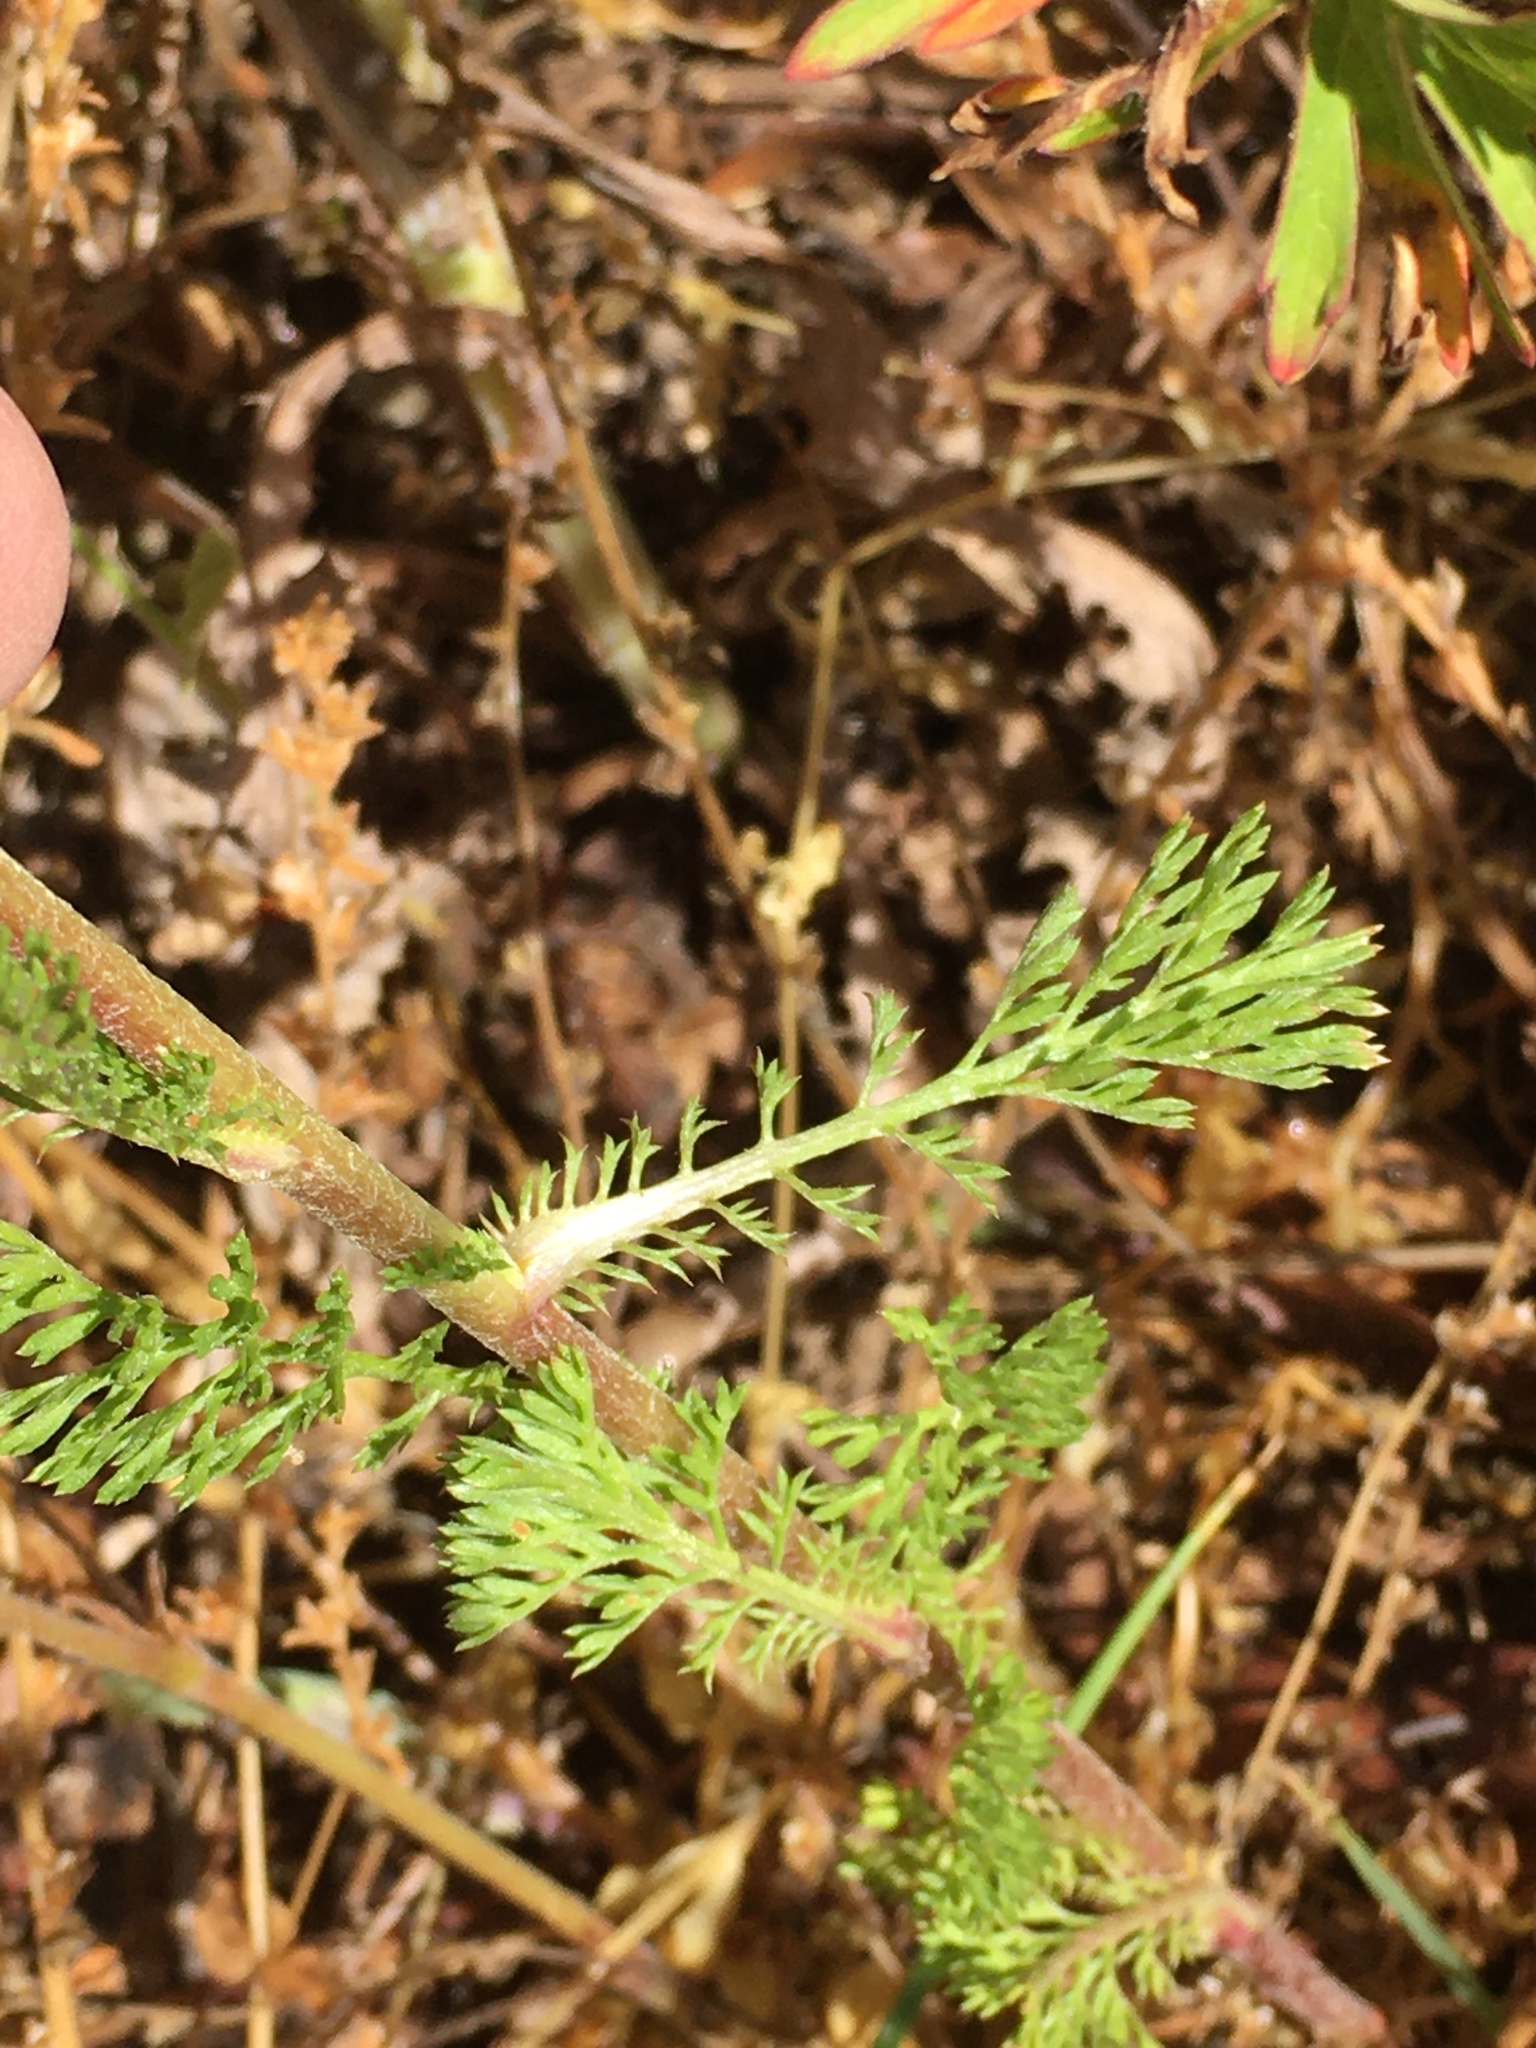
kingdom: Plantae
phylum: Tracheophyta
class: Magnoliopsida
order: Asterales
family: Asteraceae
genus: Anthemis
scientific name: Anthemis arvensis
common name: Corn chamomile
